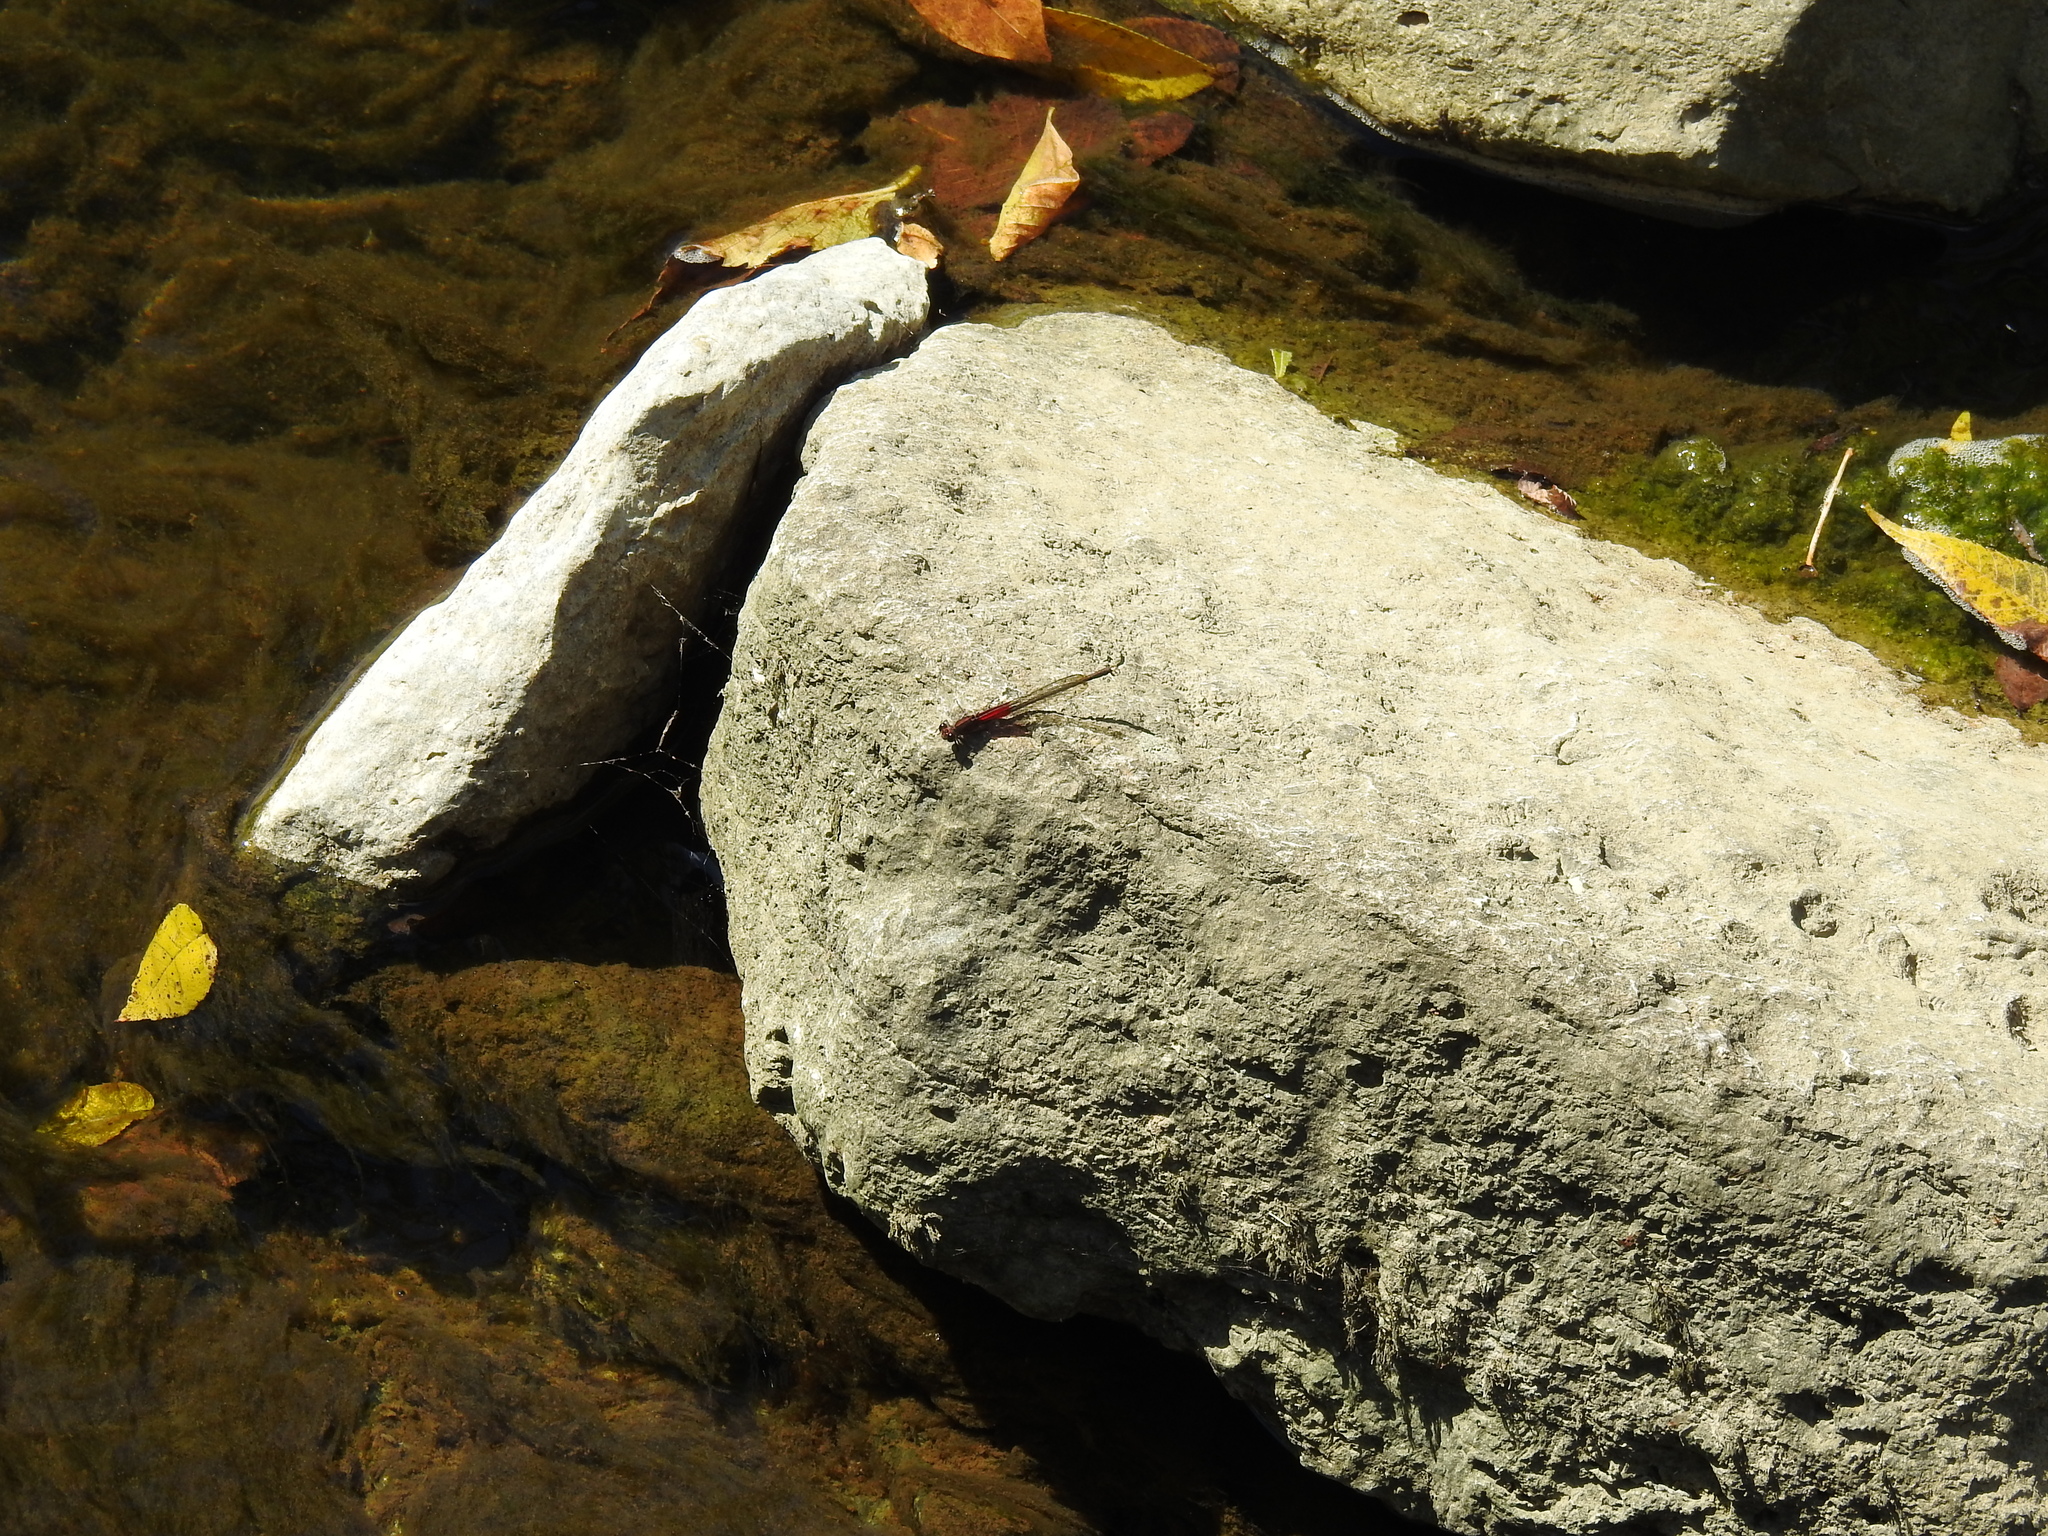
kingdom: Animalia
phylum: Arthropoda
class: Insecta
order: Odonata
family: Calopterygidae
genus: Hetaerina
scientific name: Hetaerina americana
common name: American rubyspot
